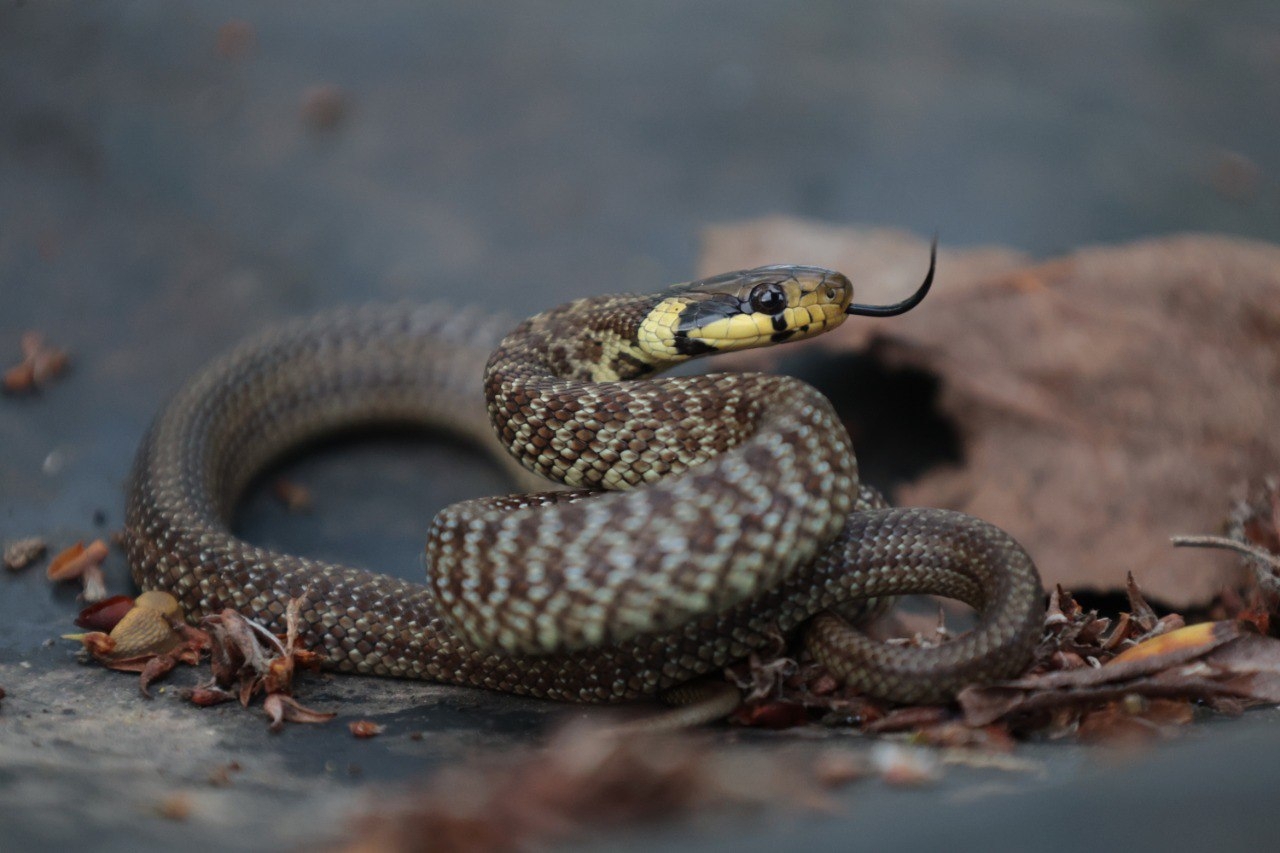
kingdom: Animalia
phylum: Chordata
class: Squamata
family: Colubridae
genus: Zamenis
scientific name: Zamenis longissimus
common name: Aesculapean snake
